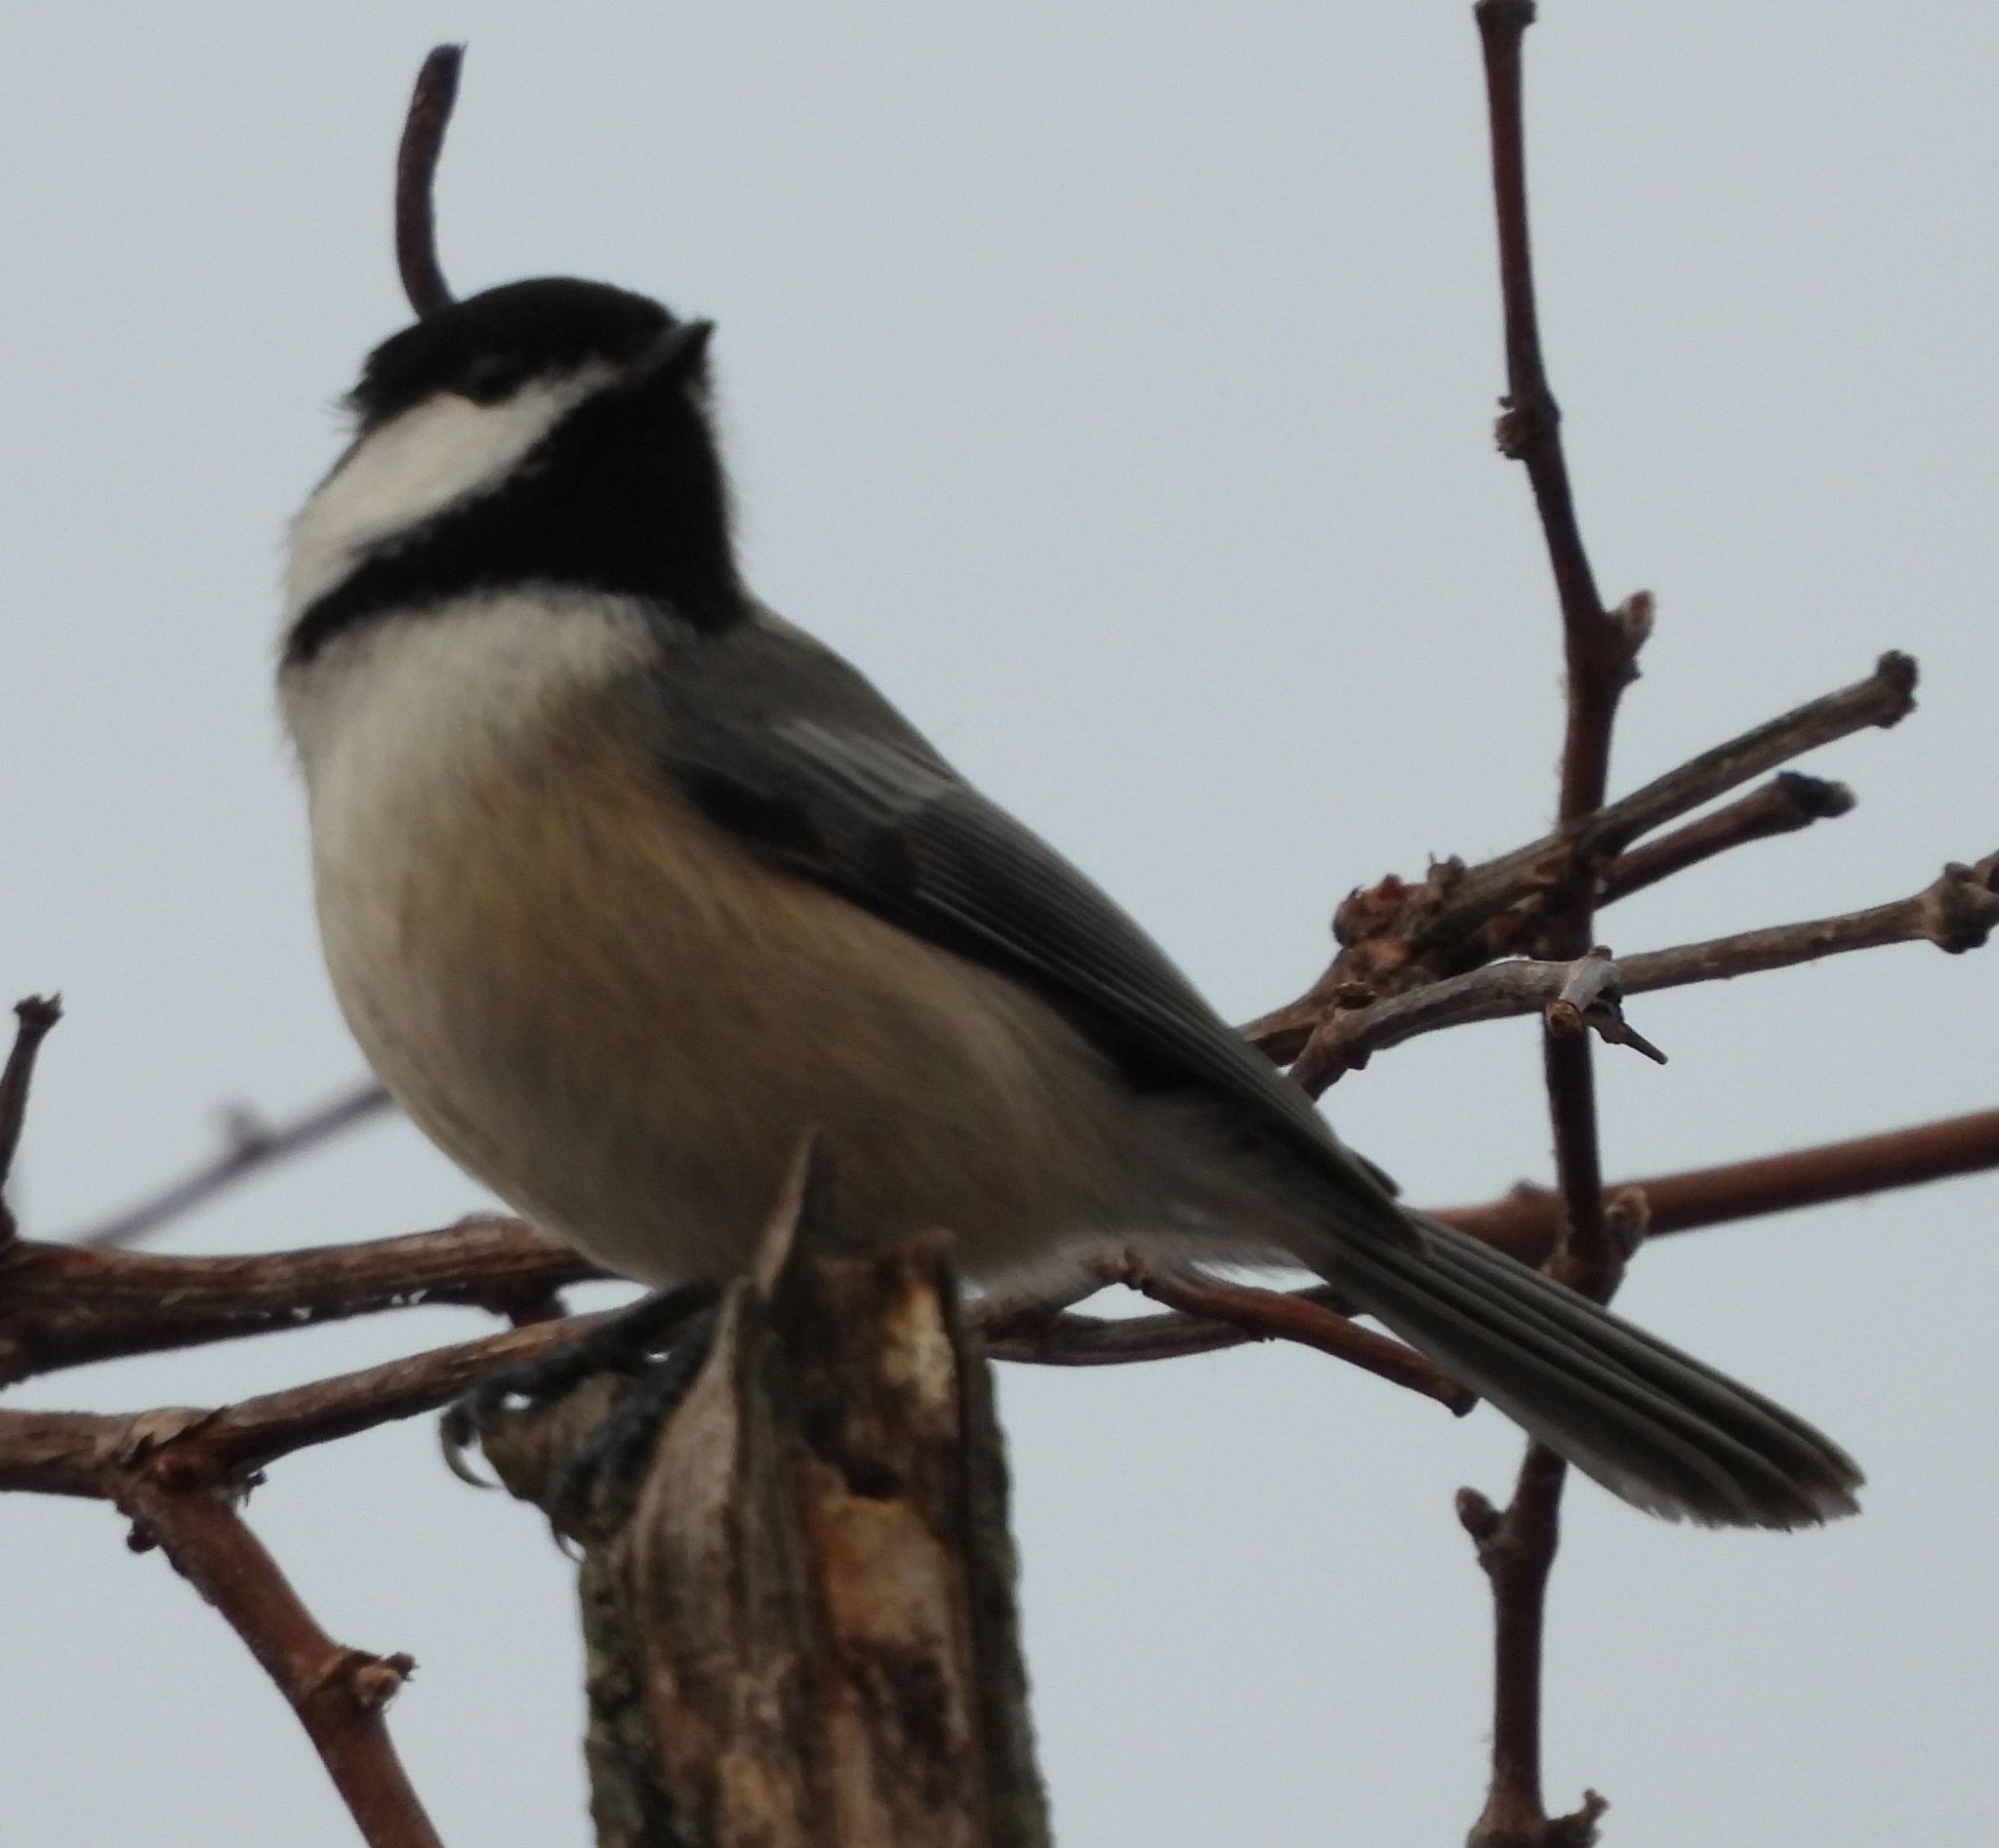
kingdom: Animalia
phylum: Chordata
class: Aves
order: Passeriformes
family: Paridae
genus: Poecile
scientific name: Poecile atricapillus
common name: Black-capped chickadee
